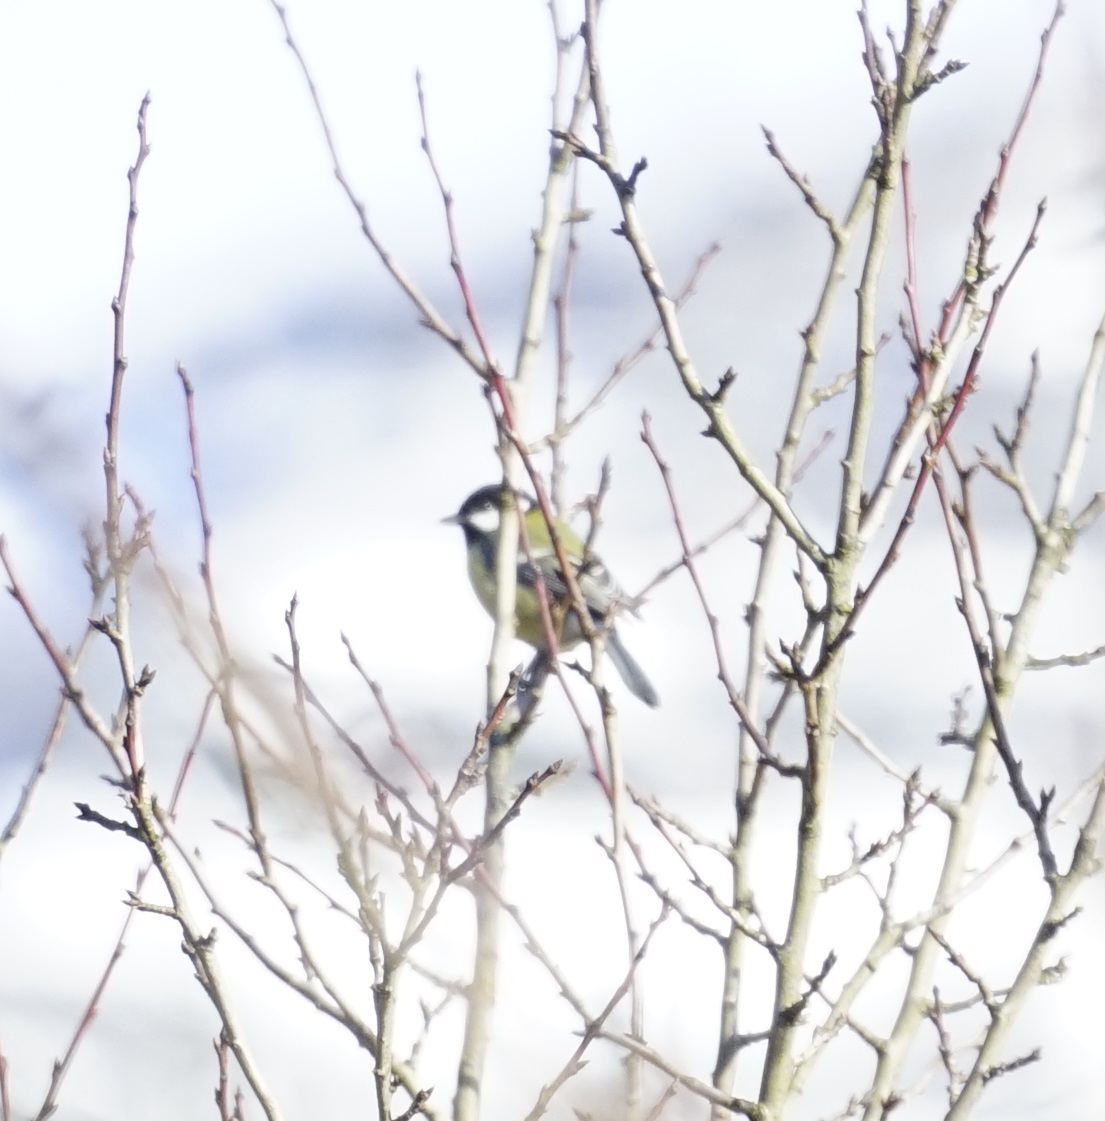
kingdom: Animalia
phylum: Chordata
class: Aves
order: Passeriformes
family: Paridae
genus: Parus
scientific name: Parus major
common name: Great tit
